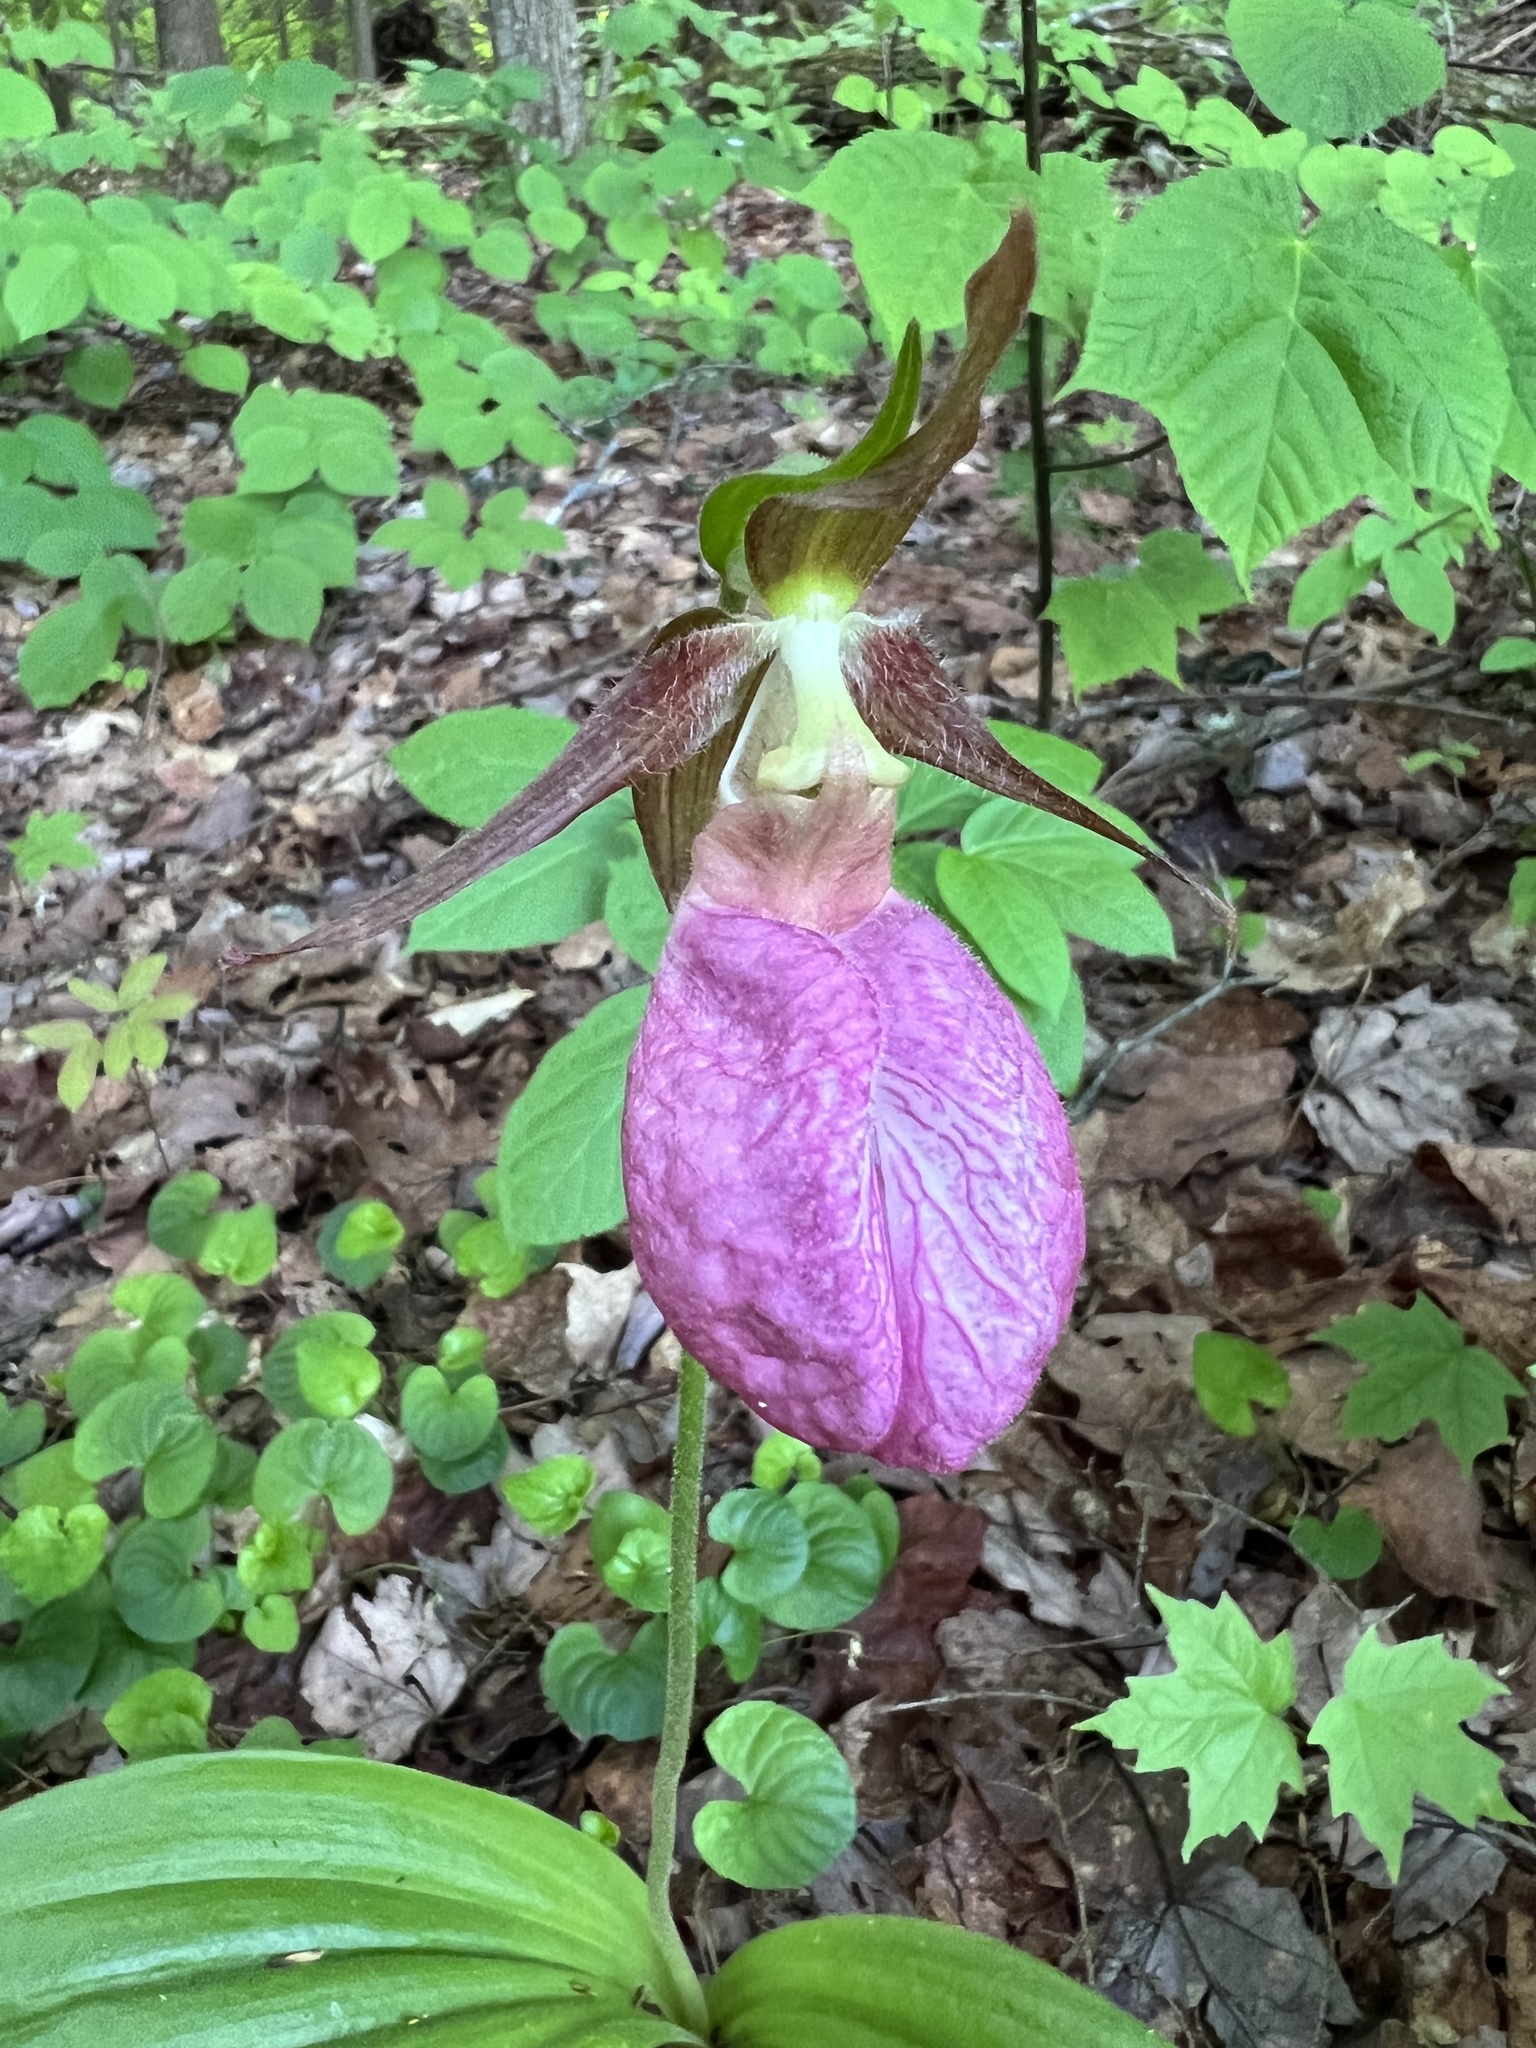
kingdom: Plantae
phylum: Tracheophyta
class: Liliopsida
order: Asparagales
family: Orchidaceae
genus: Cypripedium
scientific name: Cypripedium acaule
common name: Pink lady's-slipper
